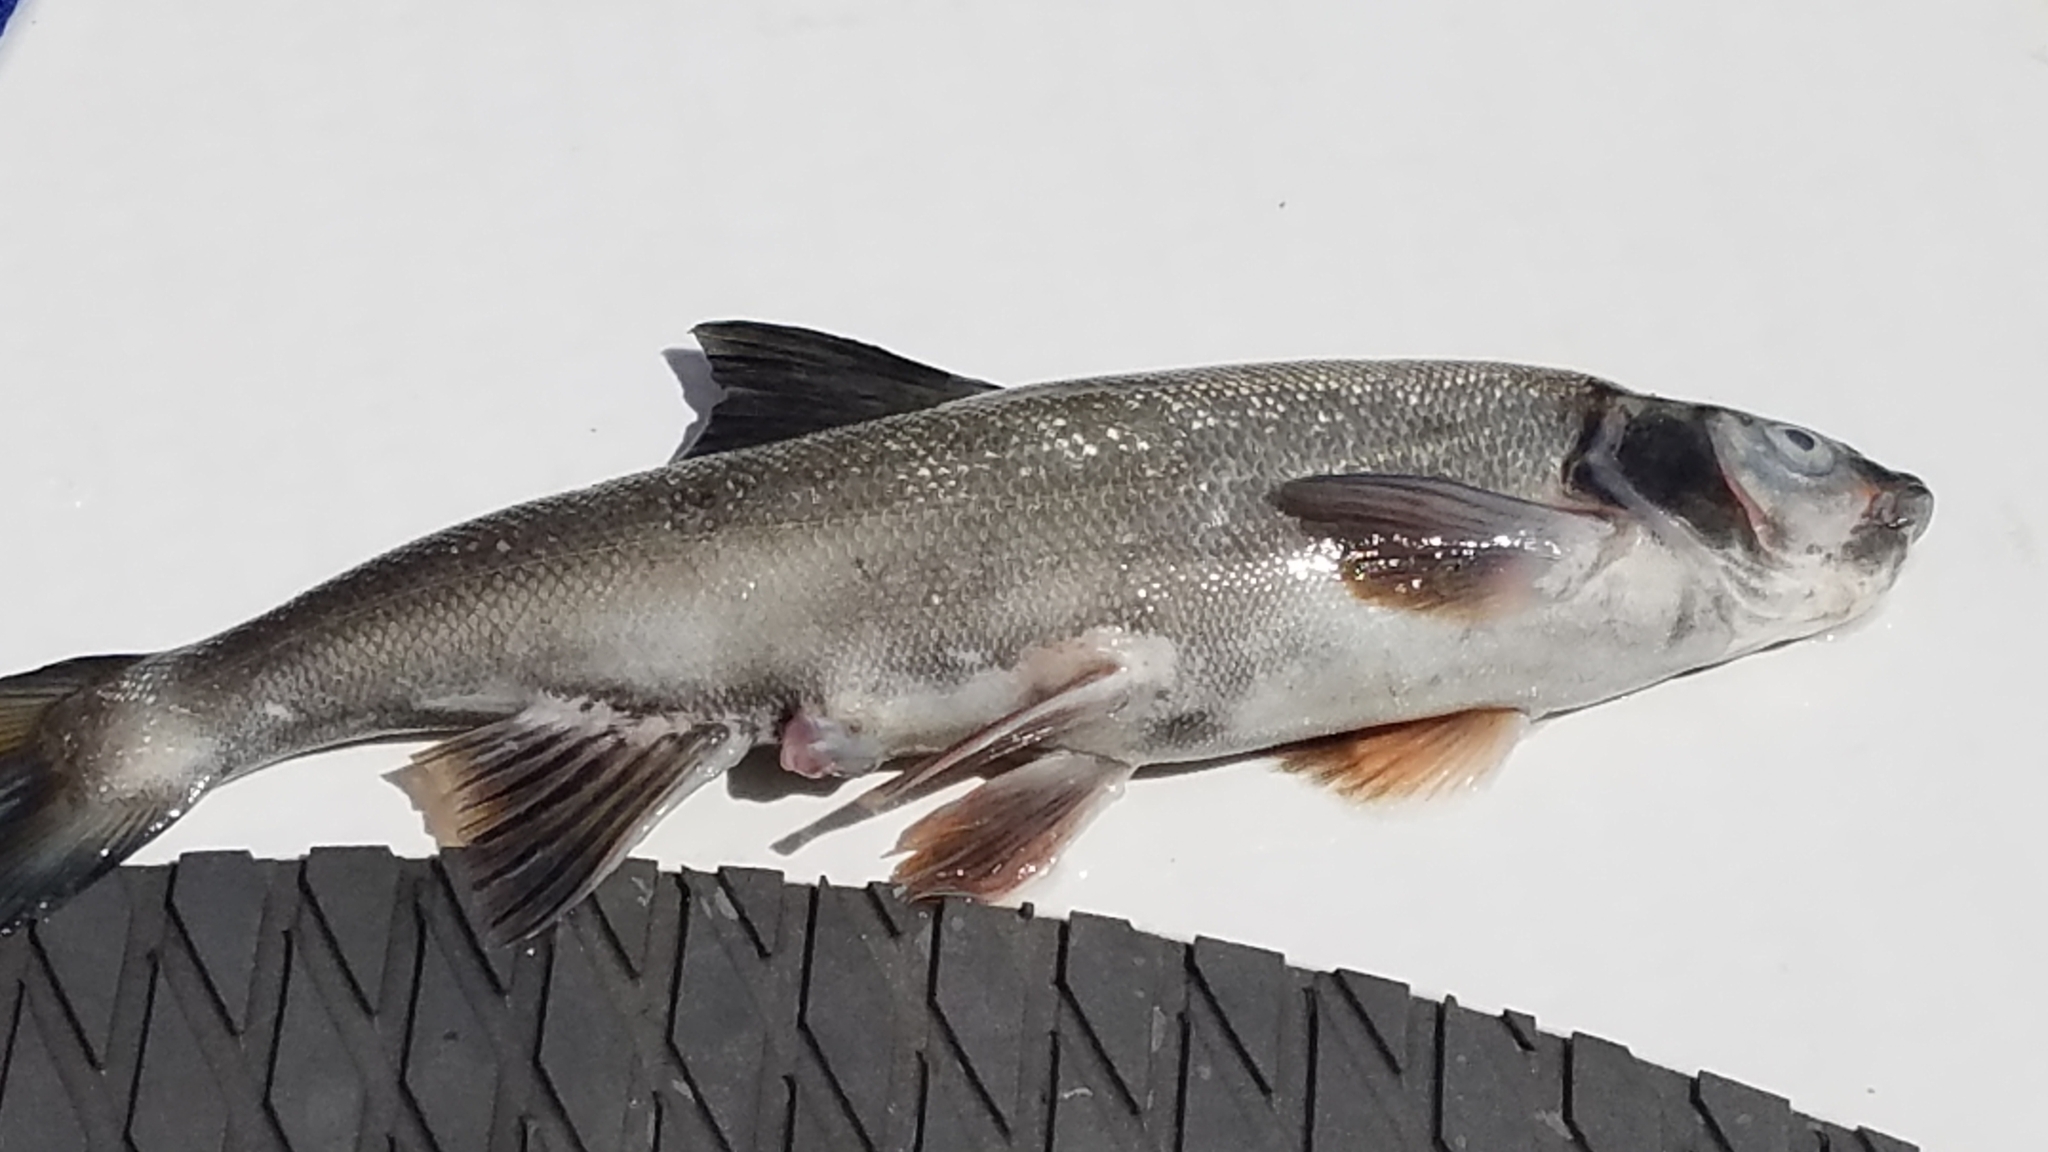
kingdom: Animalia
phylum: Chordata
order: Cypriniformes
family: Cyprinidae
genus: Ptychocheilus
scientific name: Ptychocheilus oregonensis
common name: Northern pikeminnow
